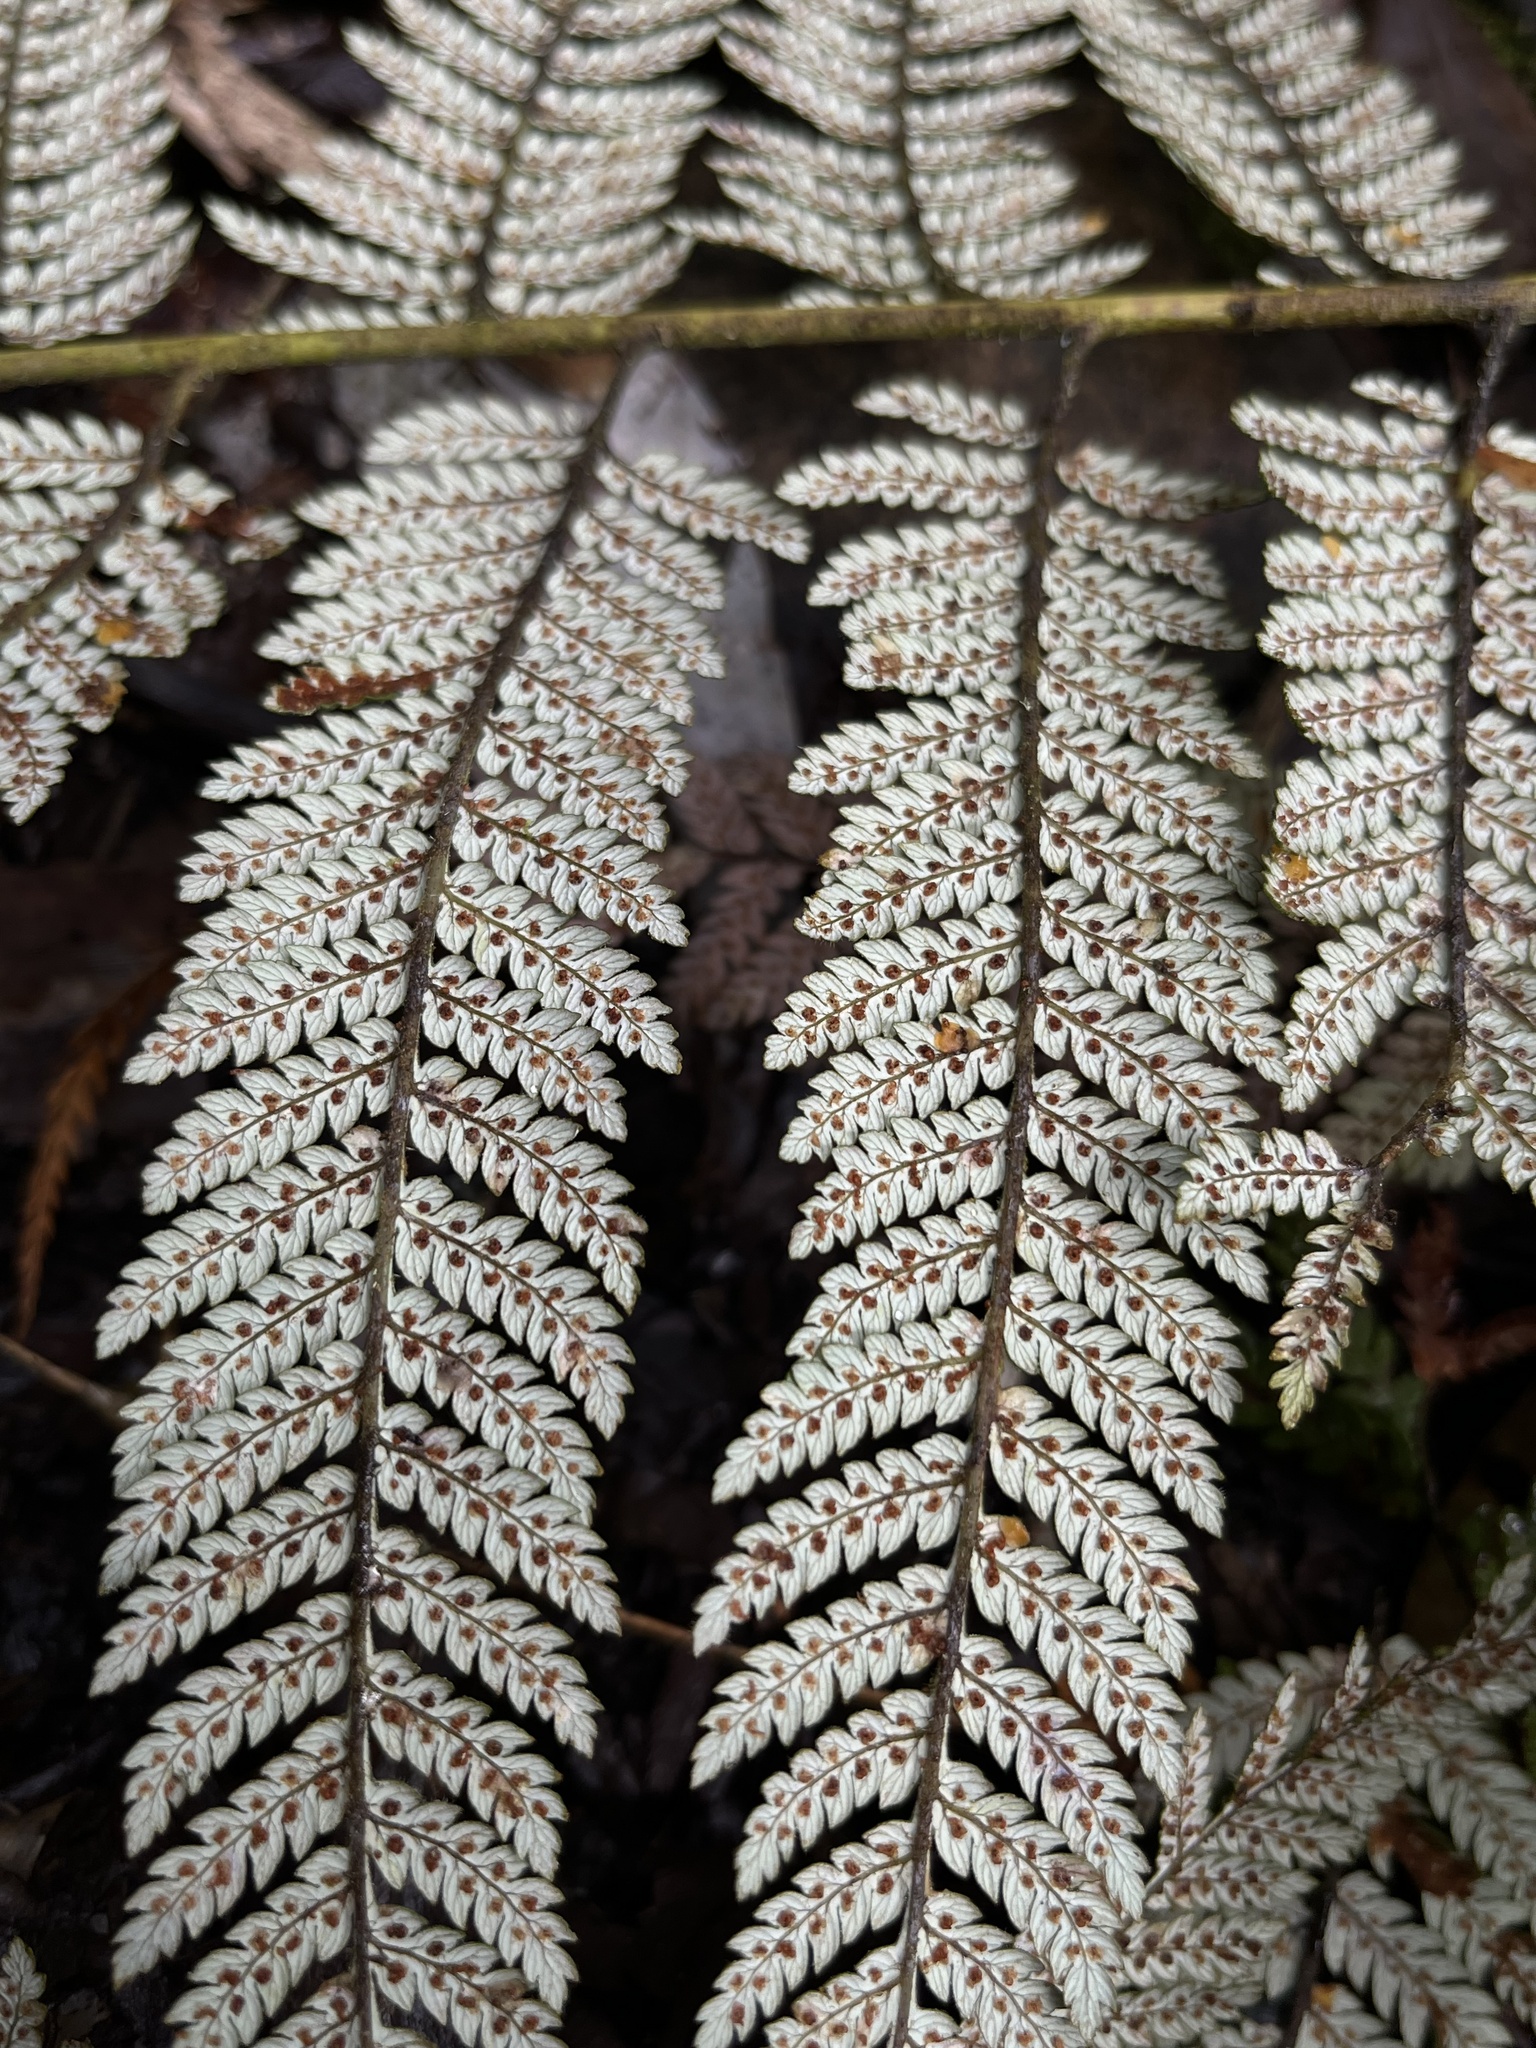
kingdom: Plantae
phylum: Tracheophyta
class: Polypodiopsida
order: Cyatheales
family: Dicksoniaceae
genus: Lophosoria
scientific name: Lophosoria quadripinnata
